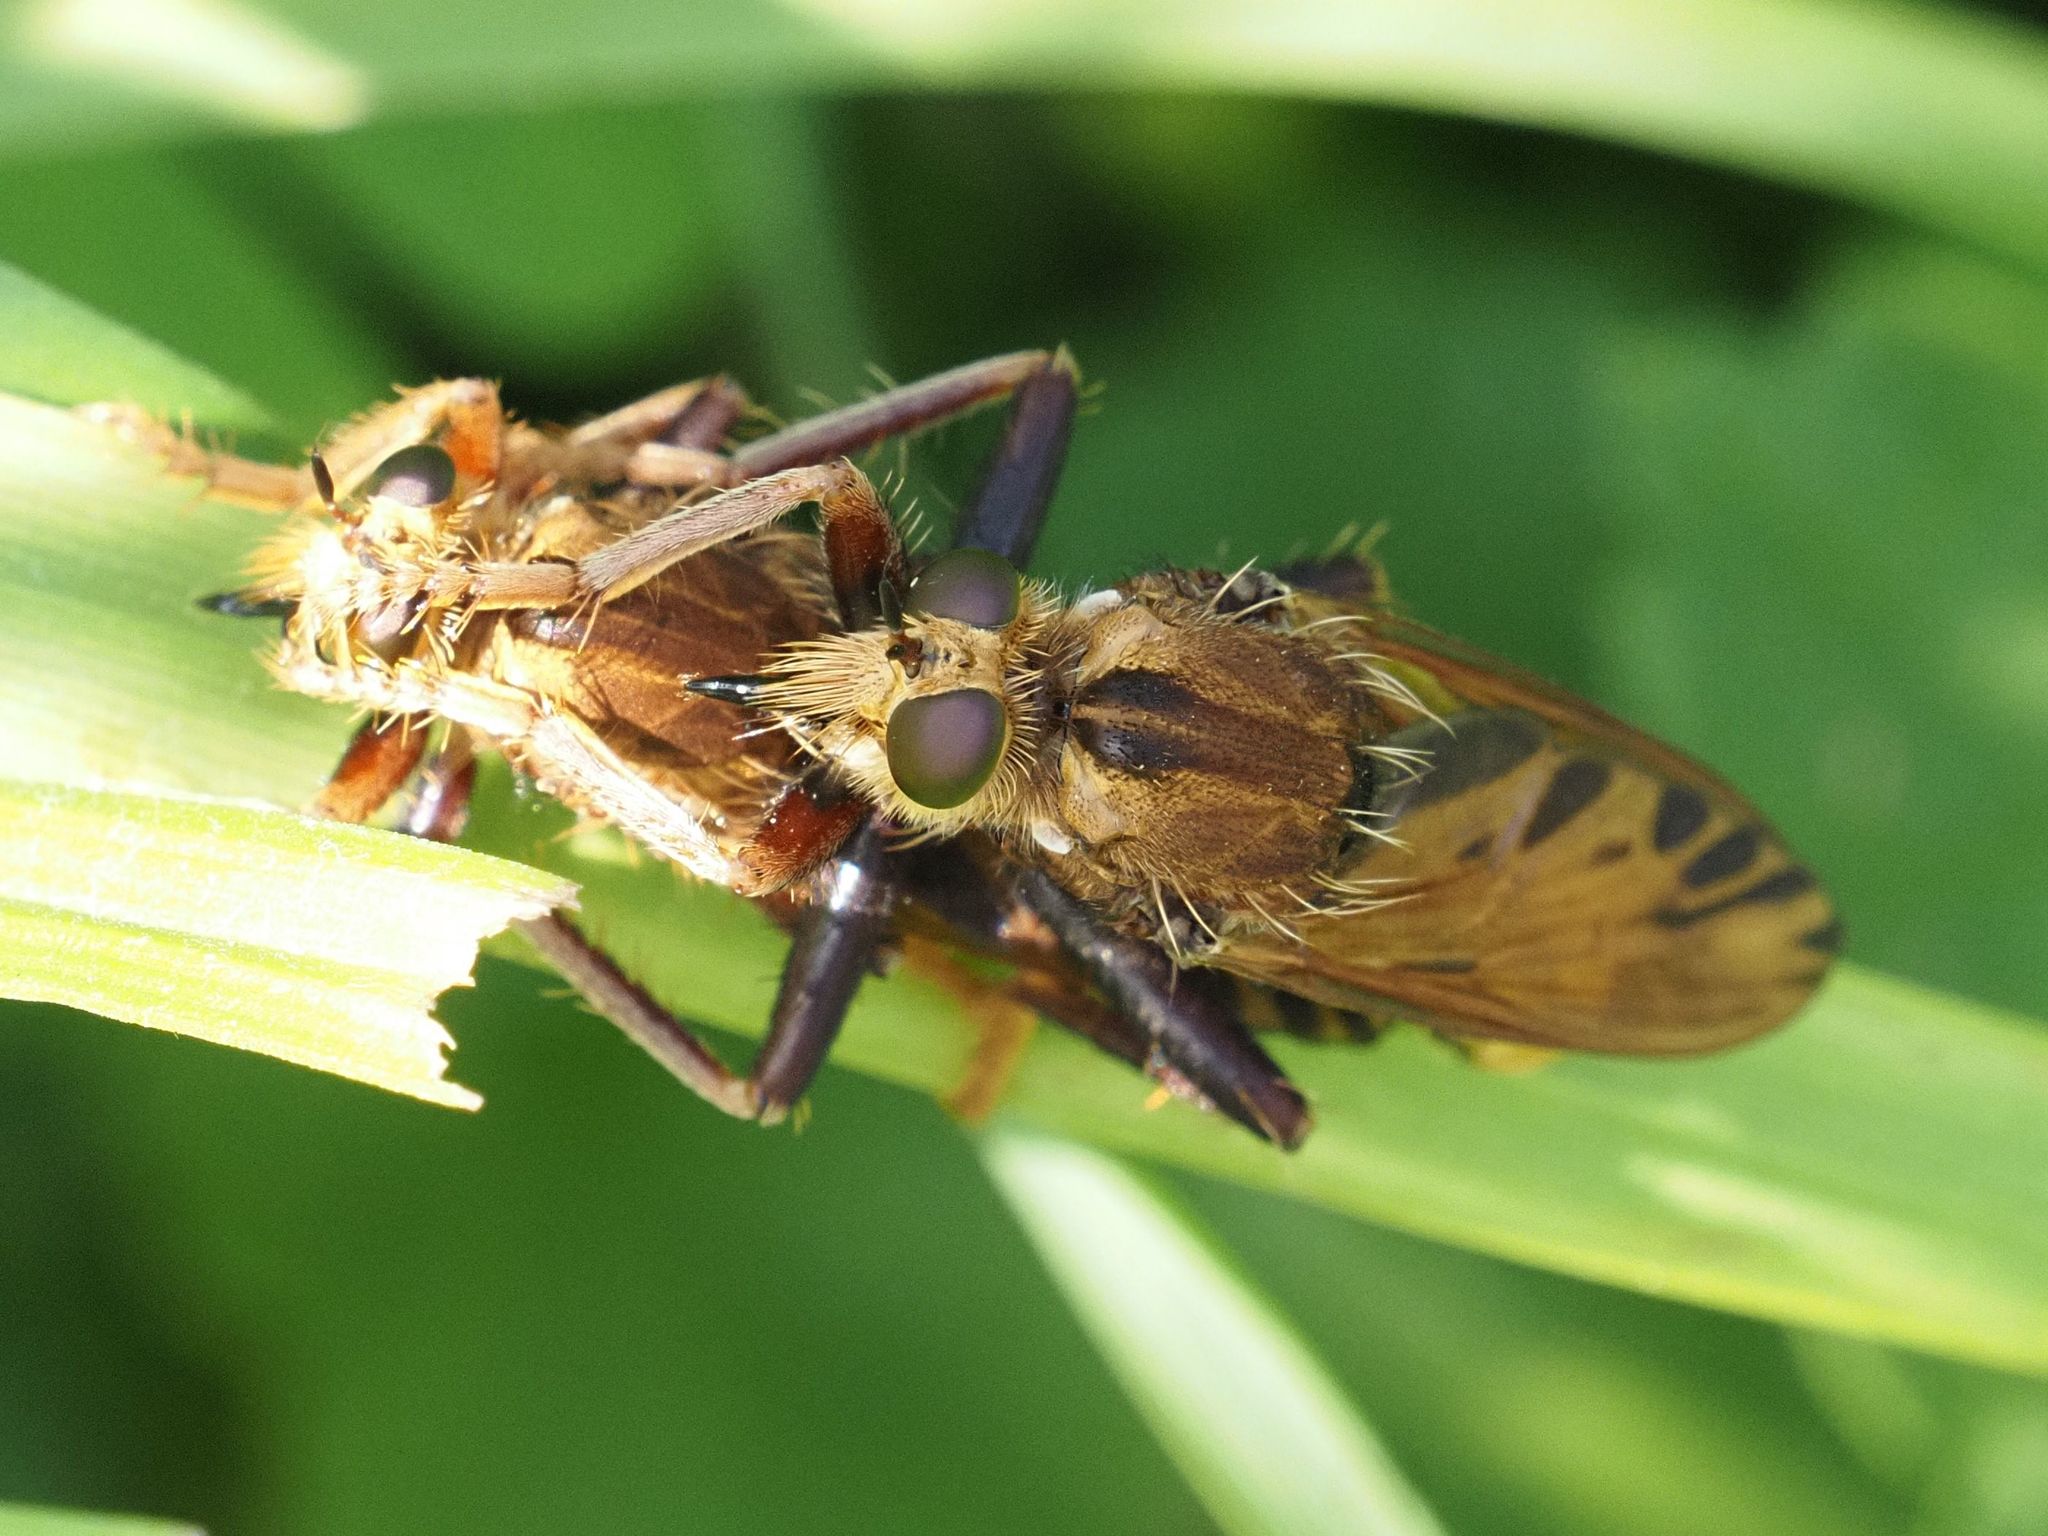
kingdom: Animalia
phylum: Arthropoda
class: Insecta
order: Diptera
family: Asilidae
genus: Asilus
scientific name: Asilus crabroniformis
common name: Hornet robberfly
